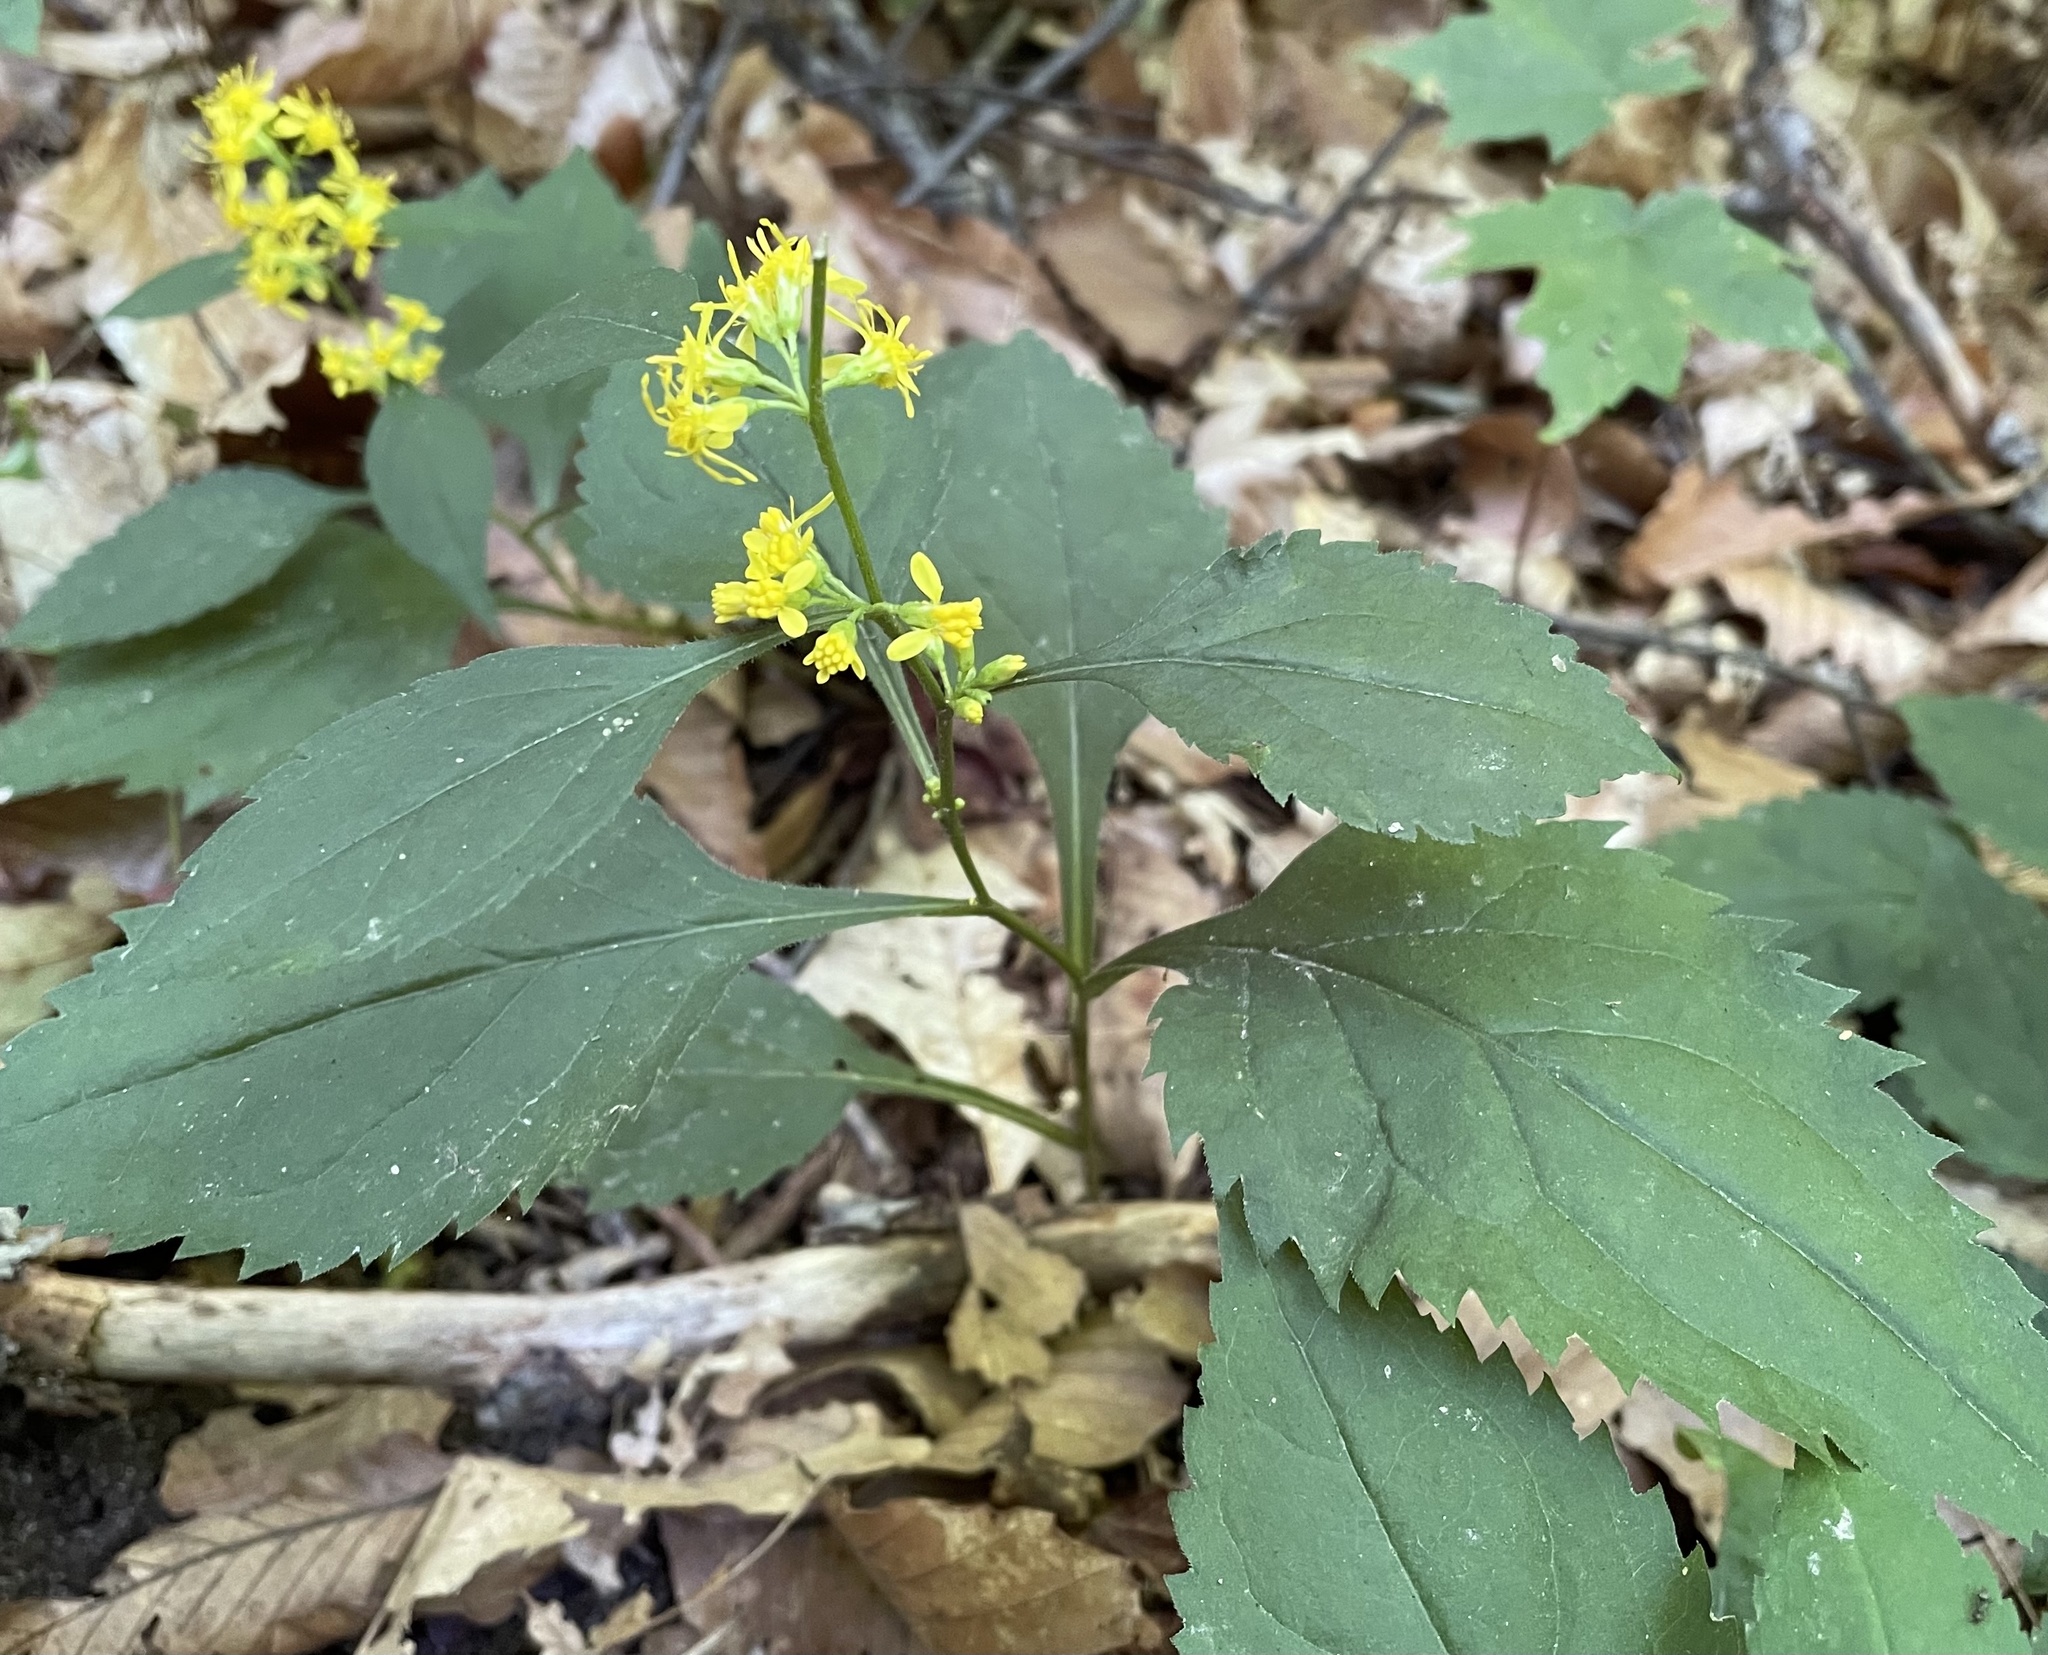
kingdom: Plantae
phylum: Tracheophyta
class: Magnoliopsida
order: Asterales
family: Asteraceae
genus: Solidago
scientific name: Solidago flexicaulis
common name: Zig-zag goldenrod
